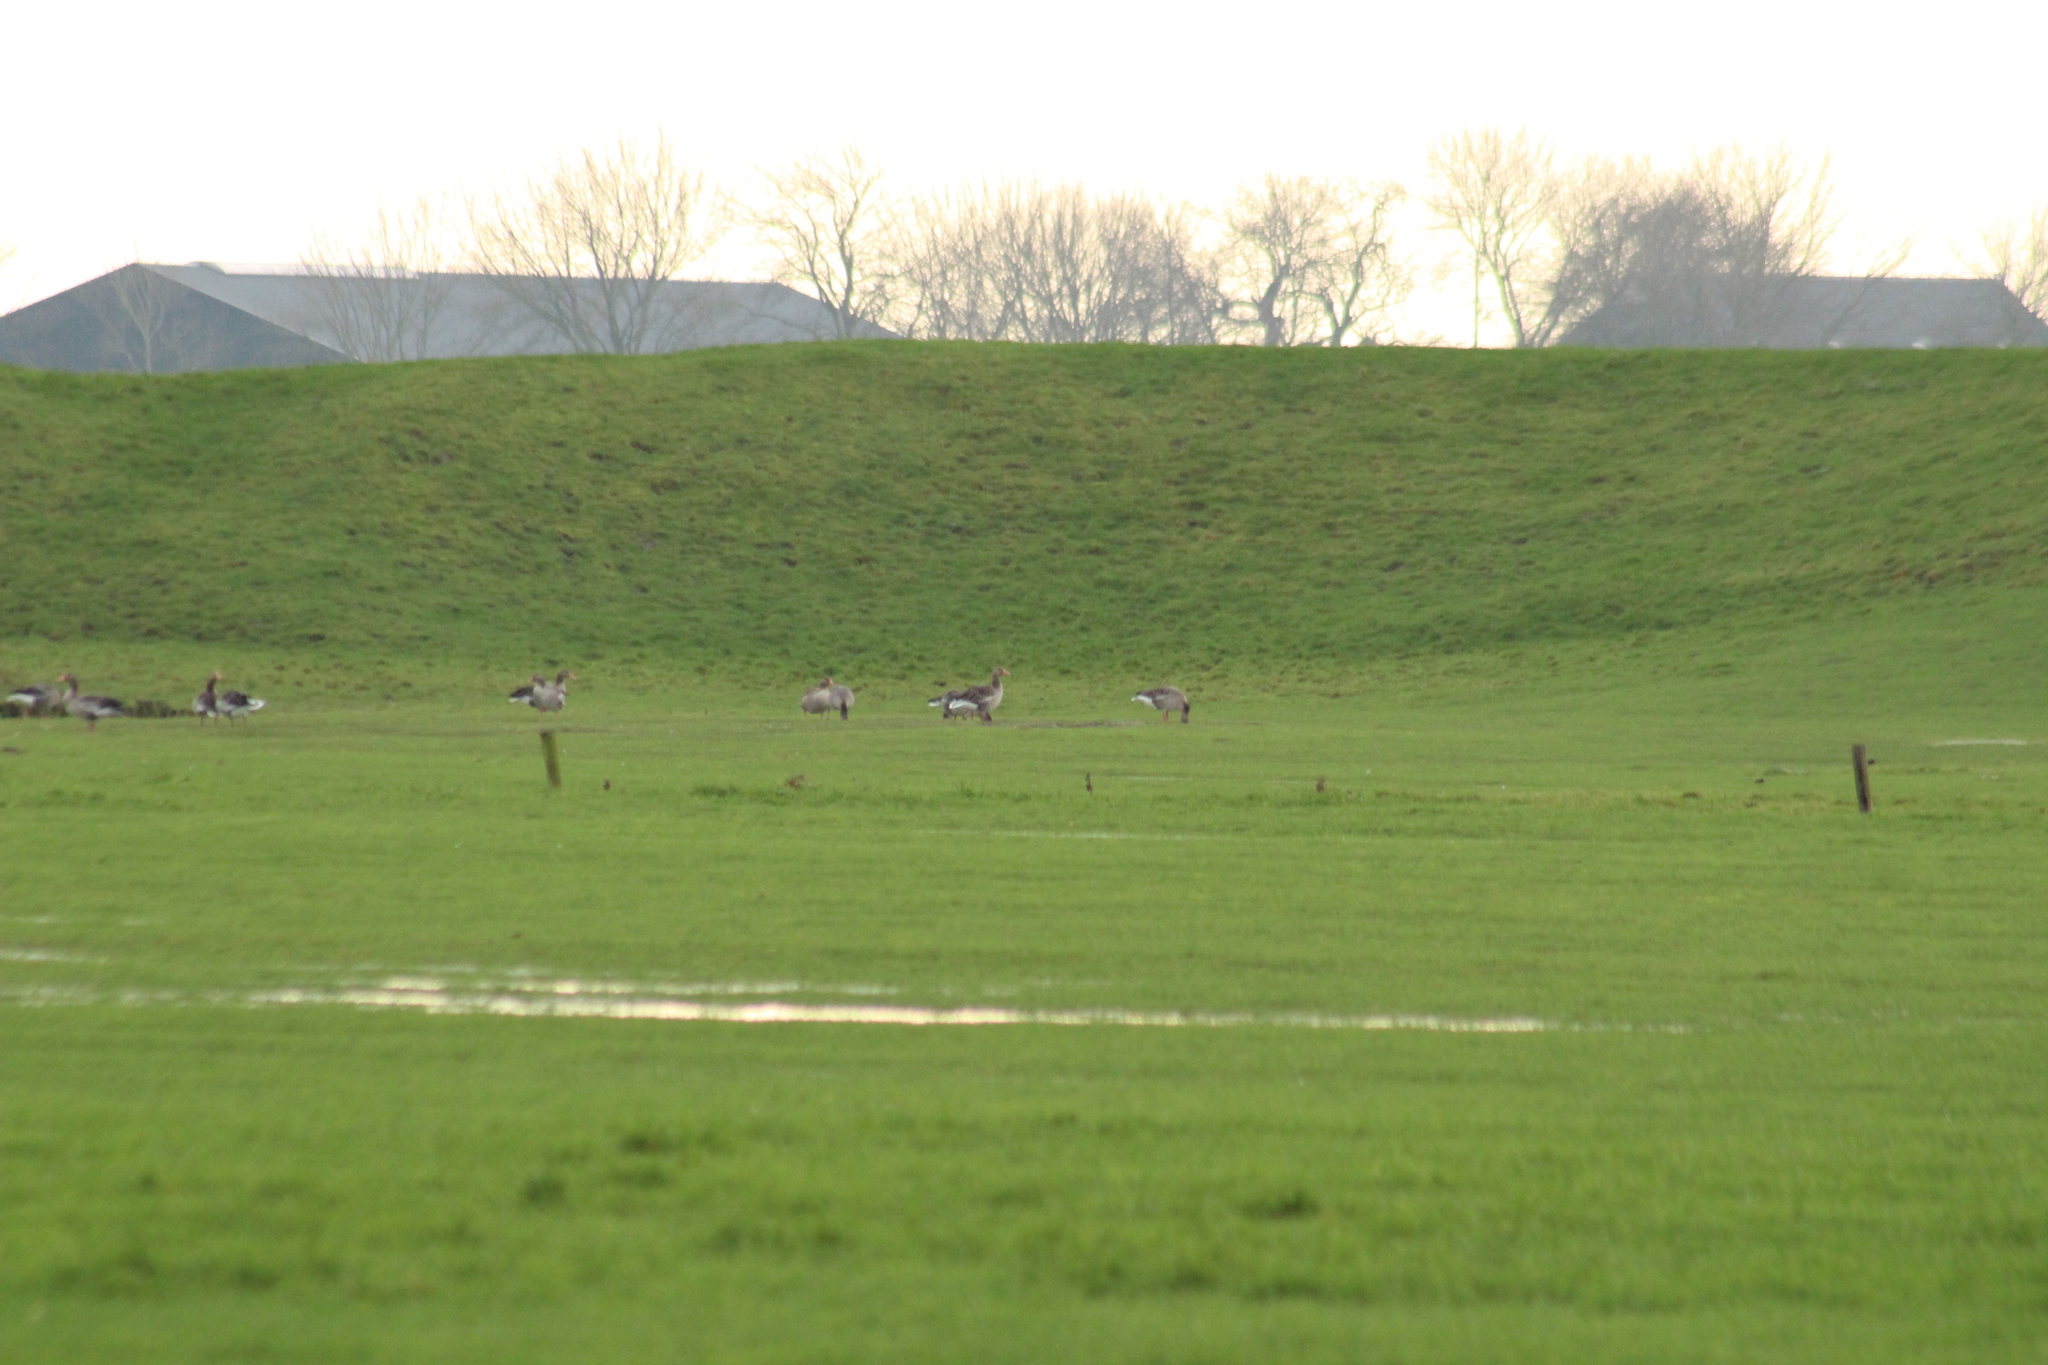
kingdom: Animalia
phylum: Chordata
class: Aves
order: Anseriformes
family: Anatidae
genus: Anser
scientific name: Anser anser
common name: Greylag goose
